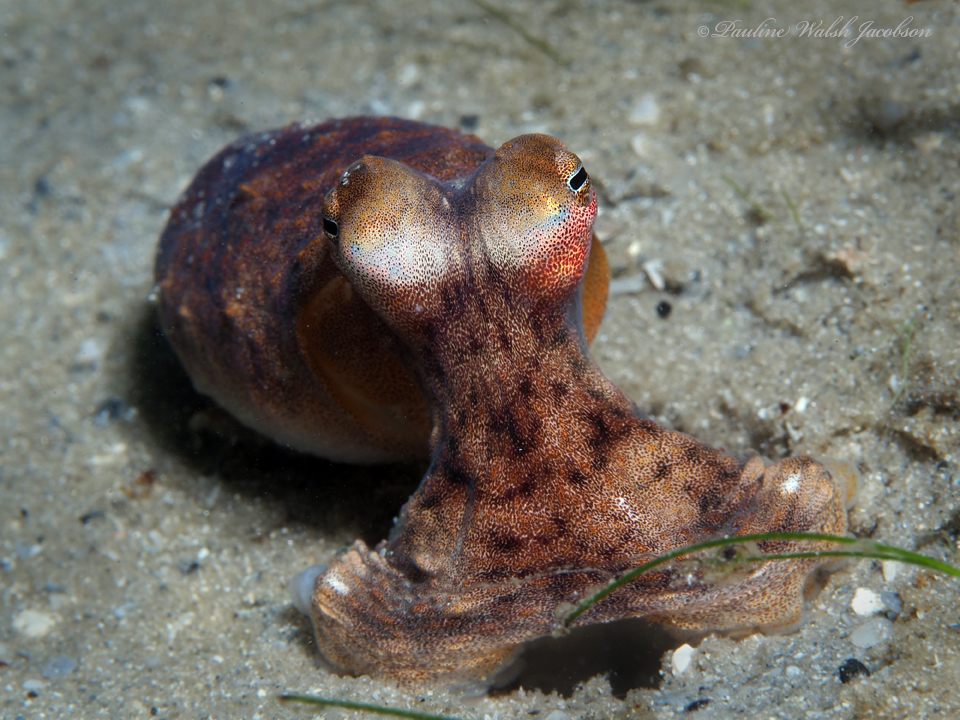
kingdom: Animalia
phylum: Mollusca
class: Cephalopoda
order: Octopoda
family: Octopodidae
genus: Macrotritopus
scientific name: Macrotritopus defilippi
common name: Lilliput longarm octopus
